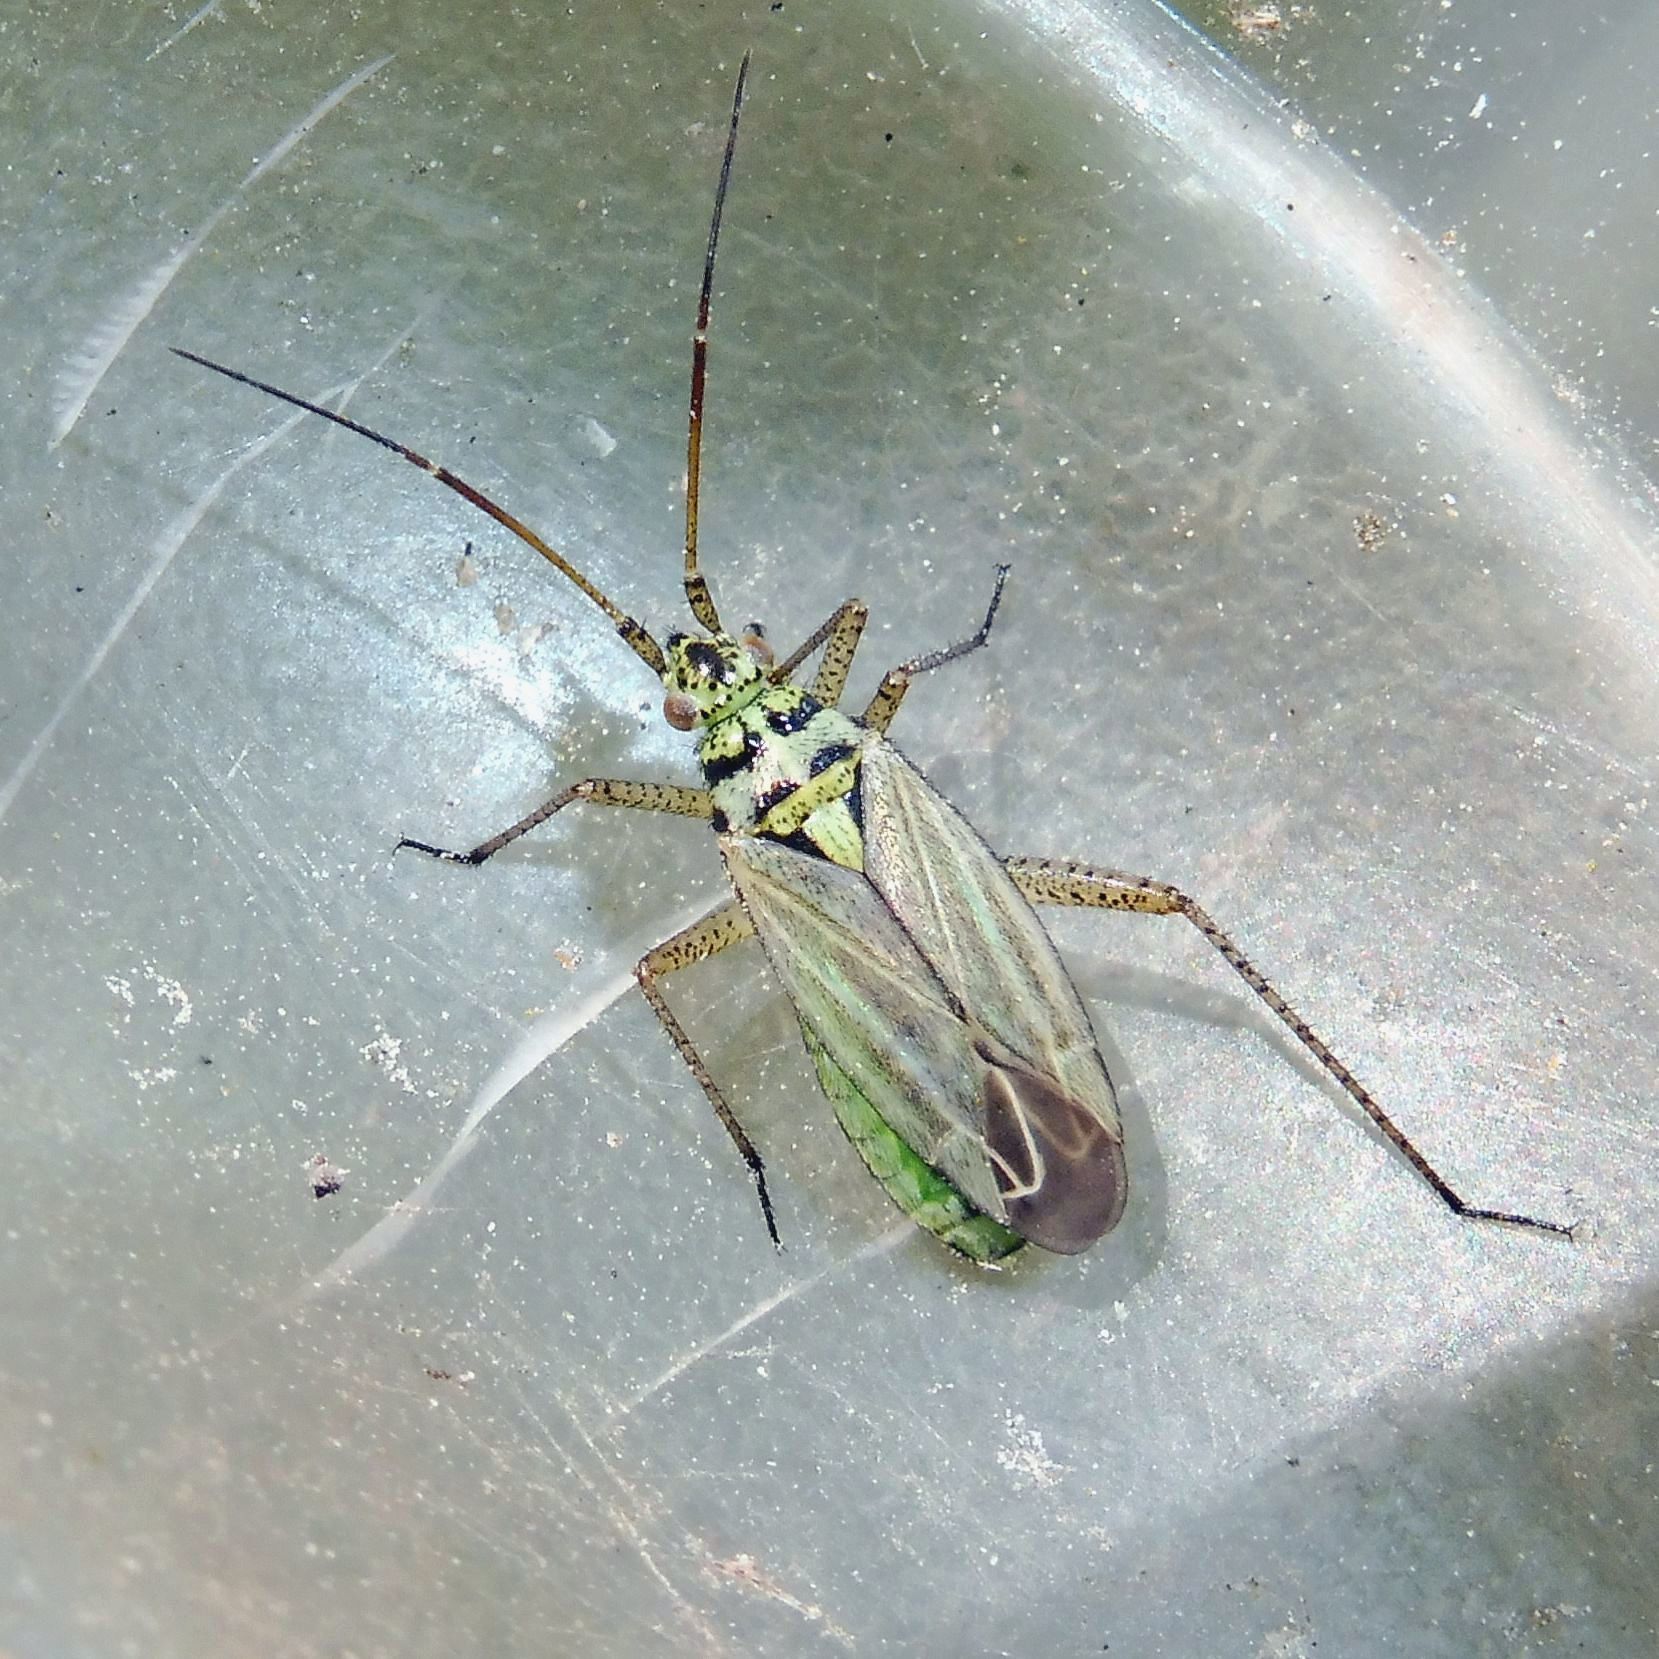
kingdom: Animalia
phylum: Arthropoda
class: Insecta
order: Hemiptera
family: Miridae
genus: Oncotylus
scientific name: Oncotylus viridiflavus
